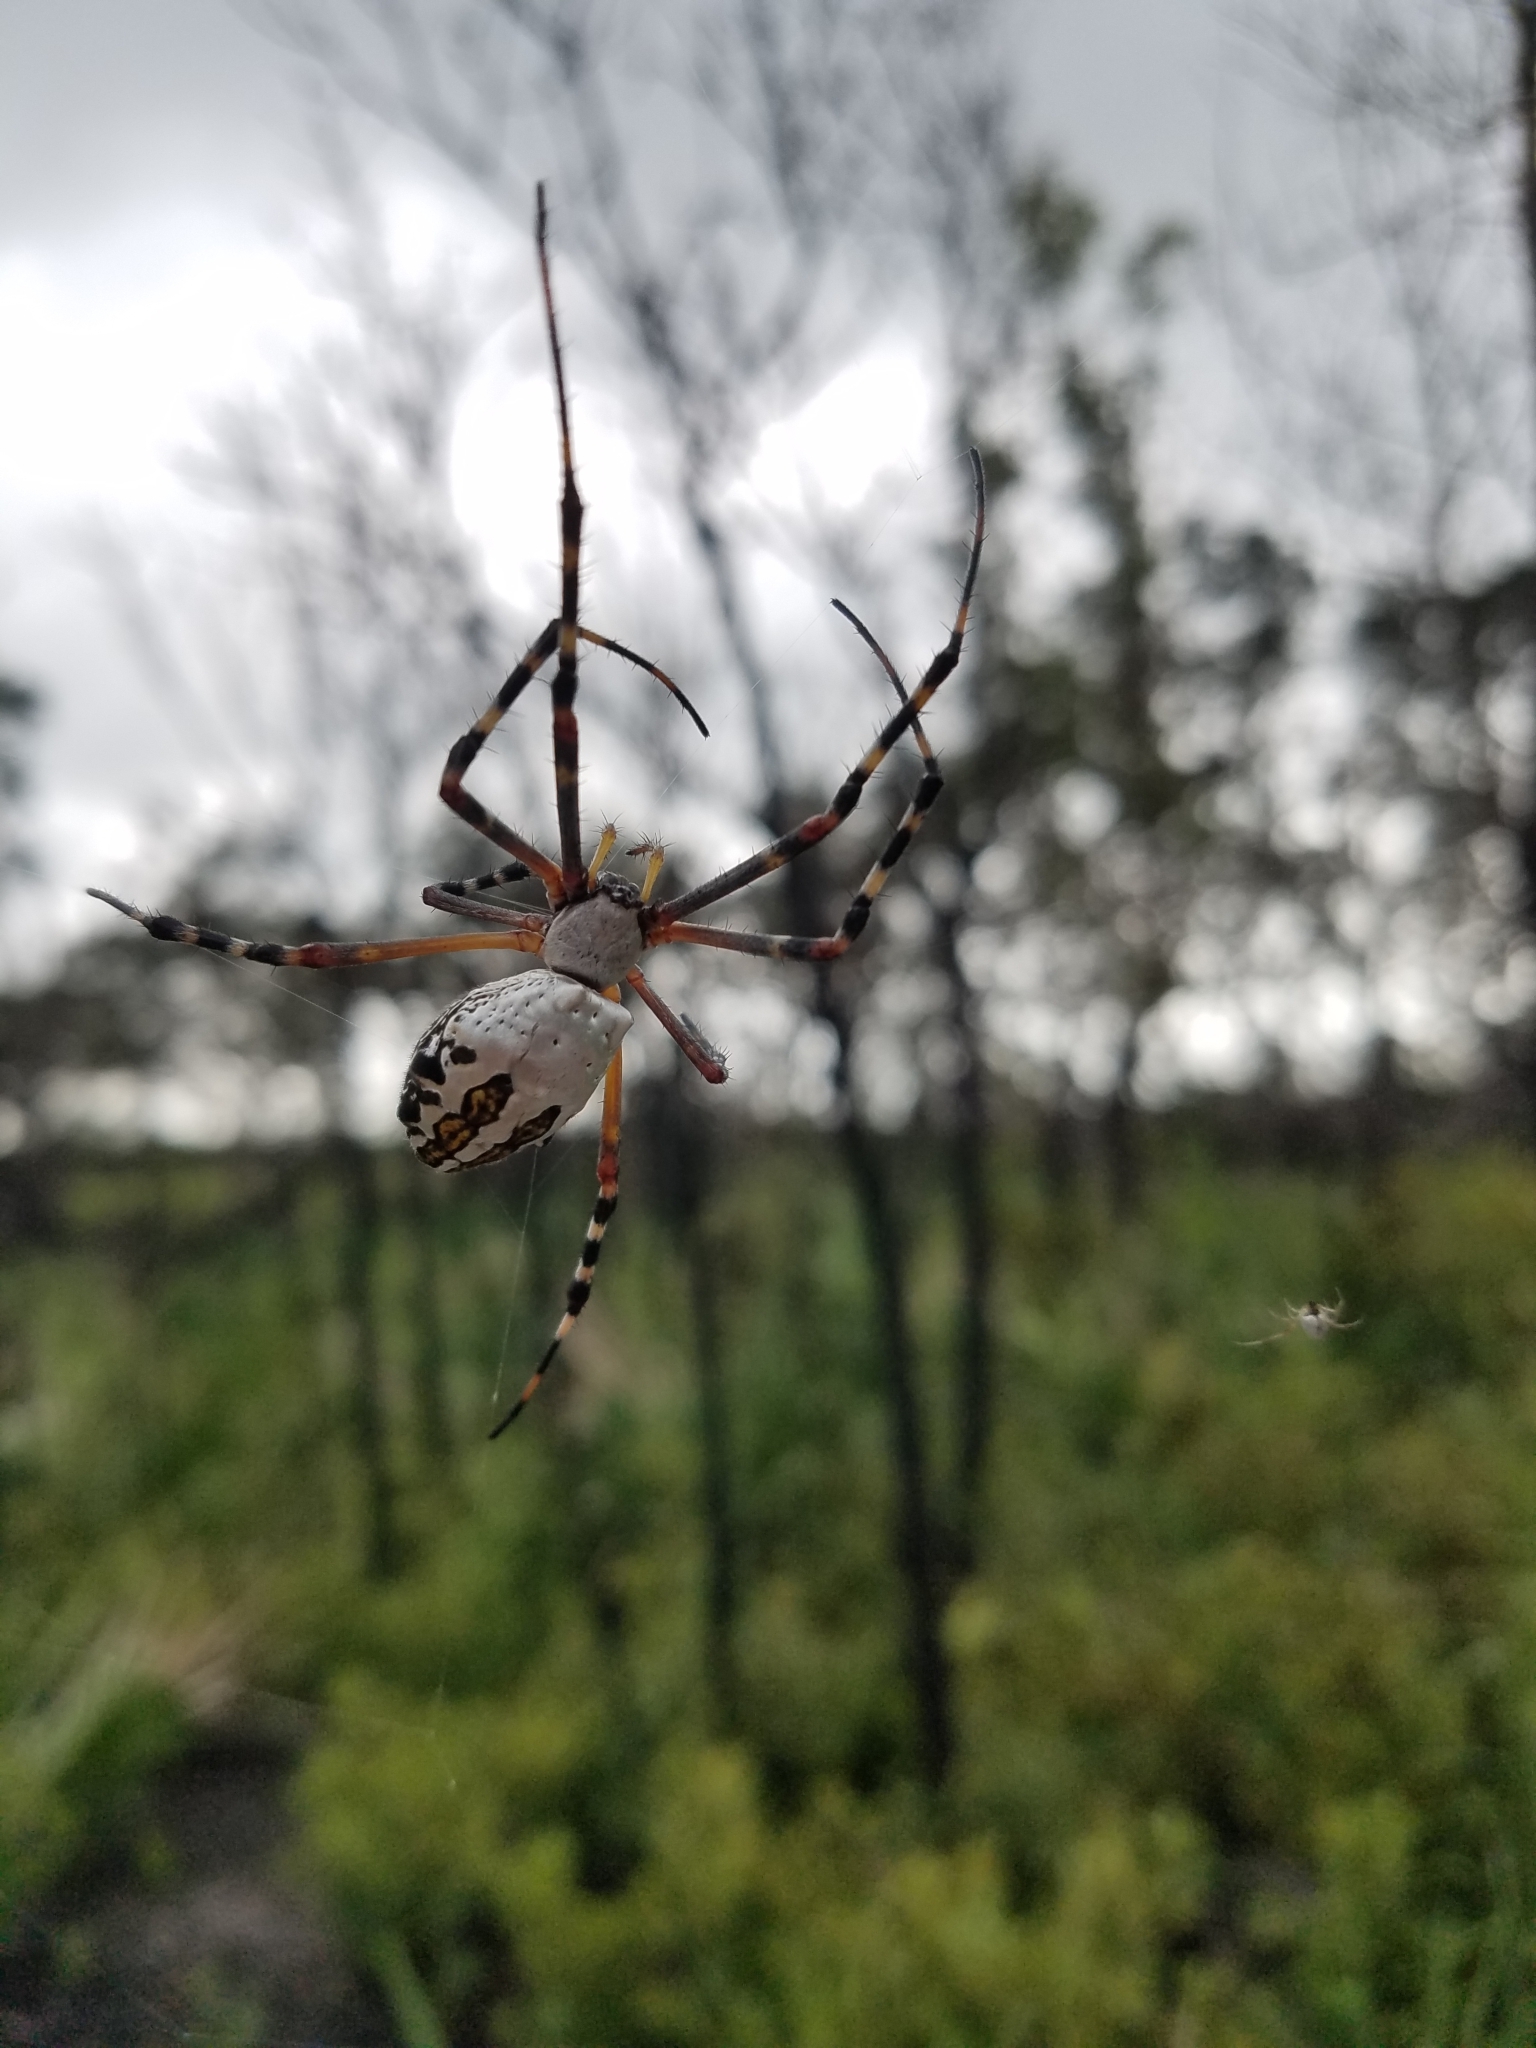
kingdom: Animalia
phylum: Arthropoda
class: Arachnida
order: Araneae
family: Araneidae
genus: Argiope
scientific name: Argiope florida
